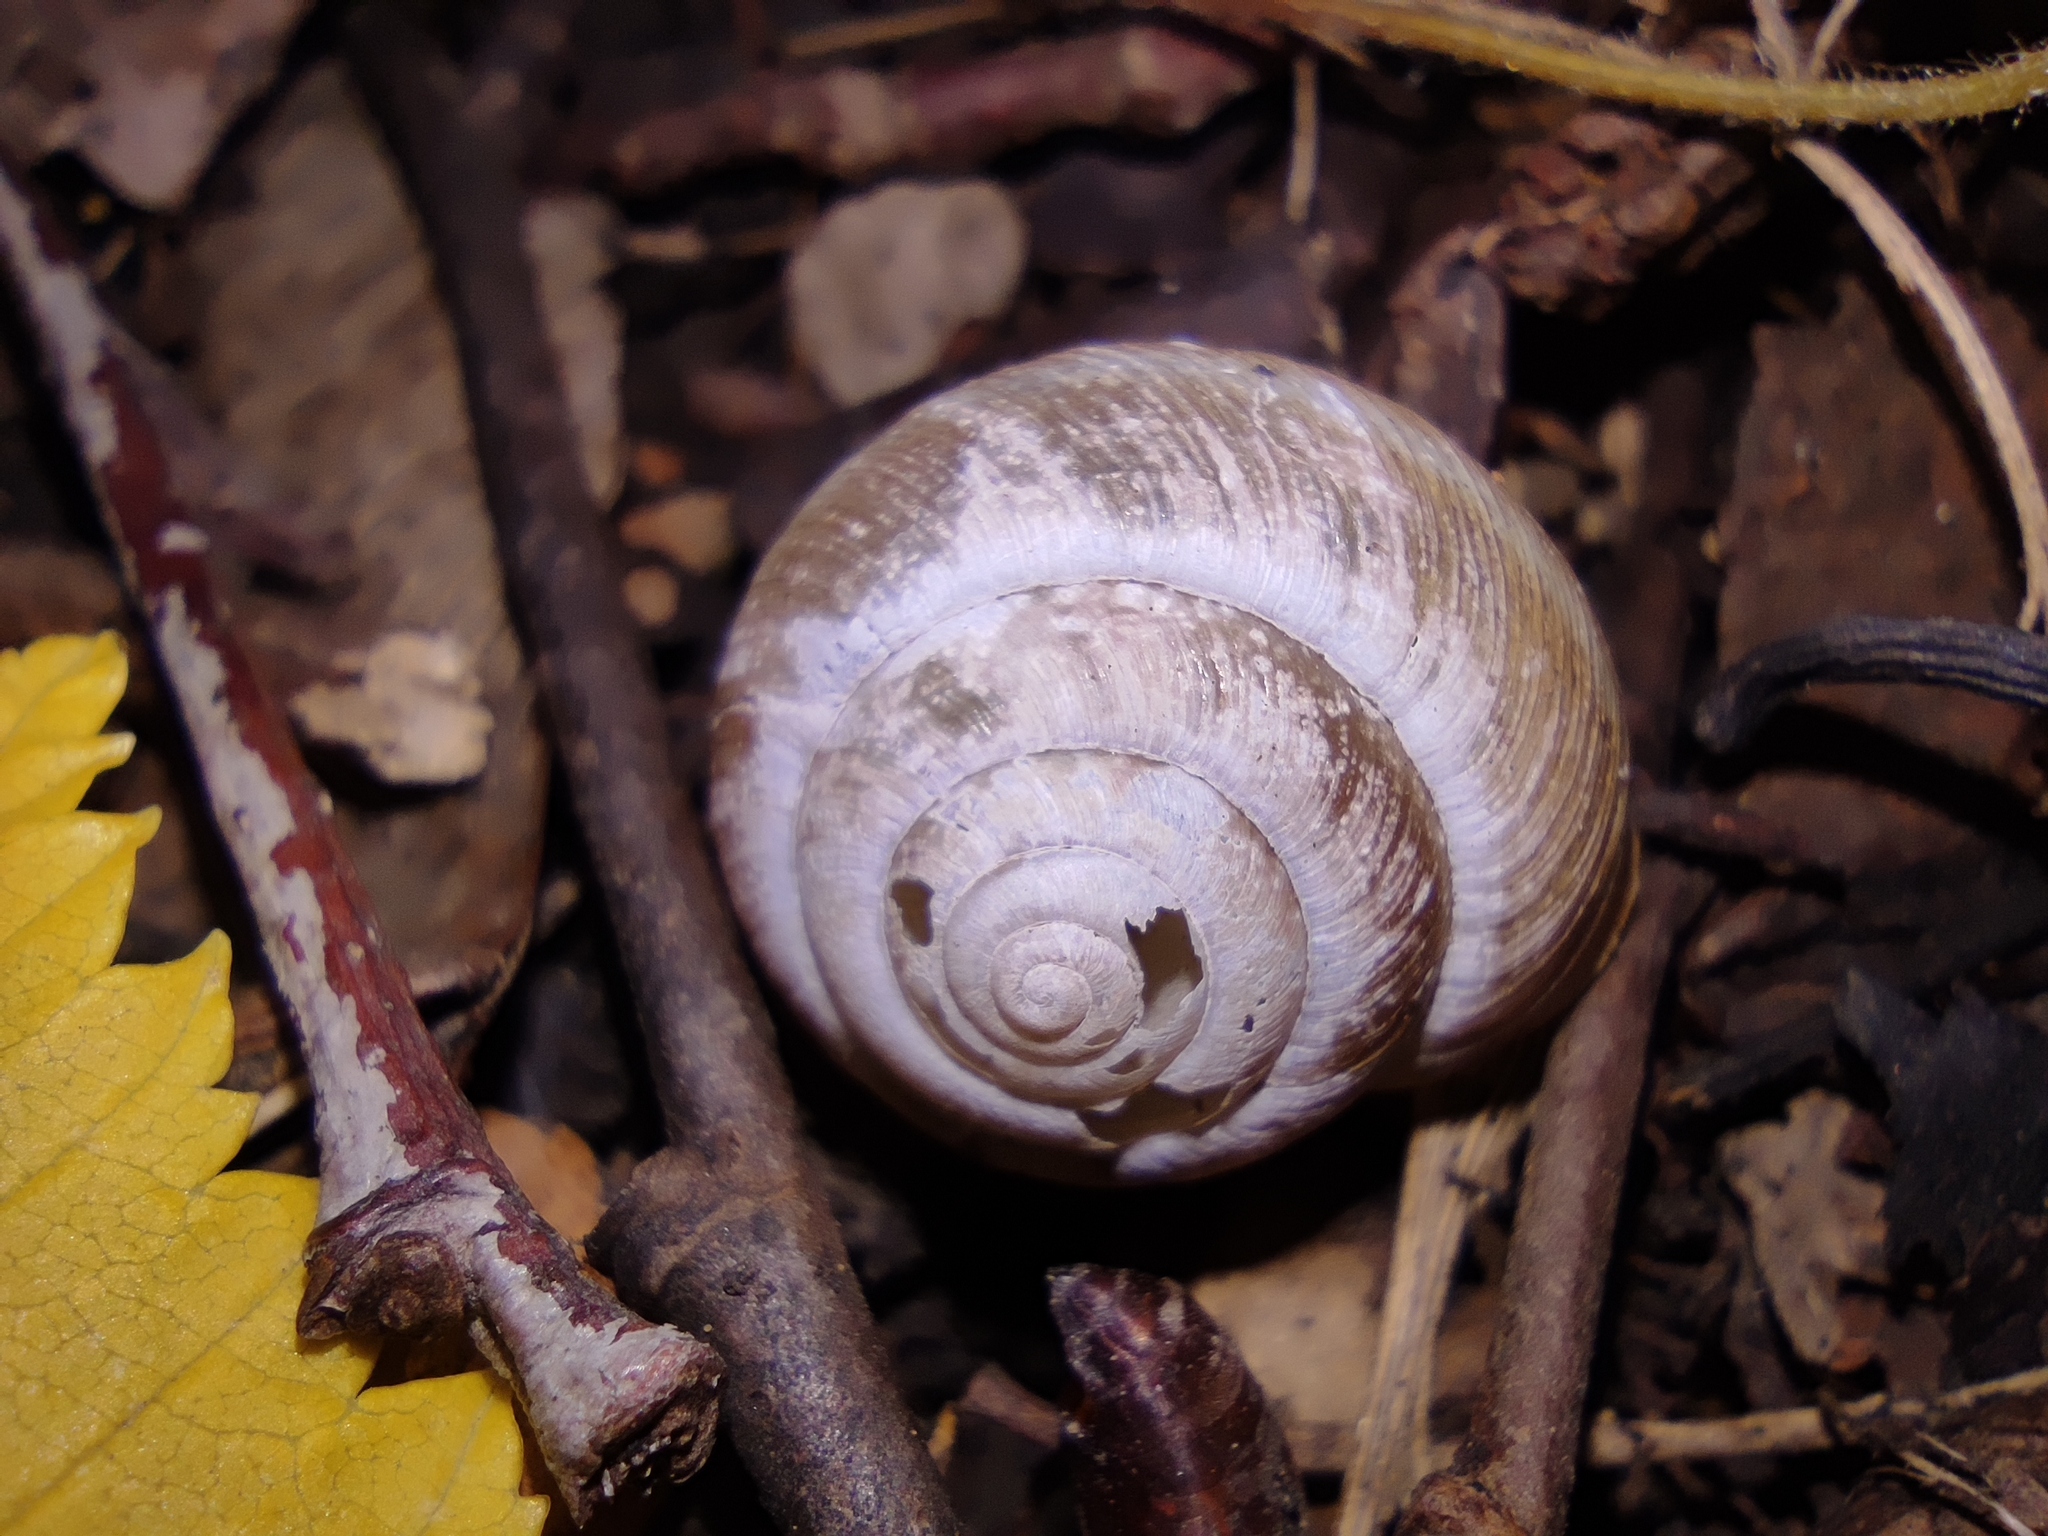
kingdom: Animalia
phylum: Mollusca
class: Gastropoda
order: Stylommatophora
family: Hygromiidae
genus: Euomphalia
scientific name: Euomphalia strigella
